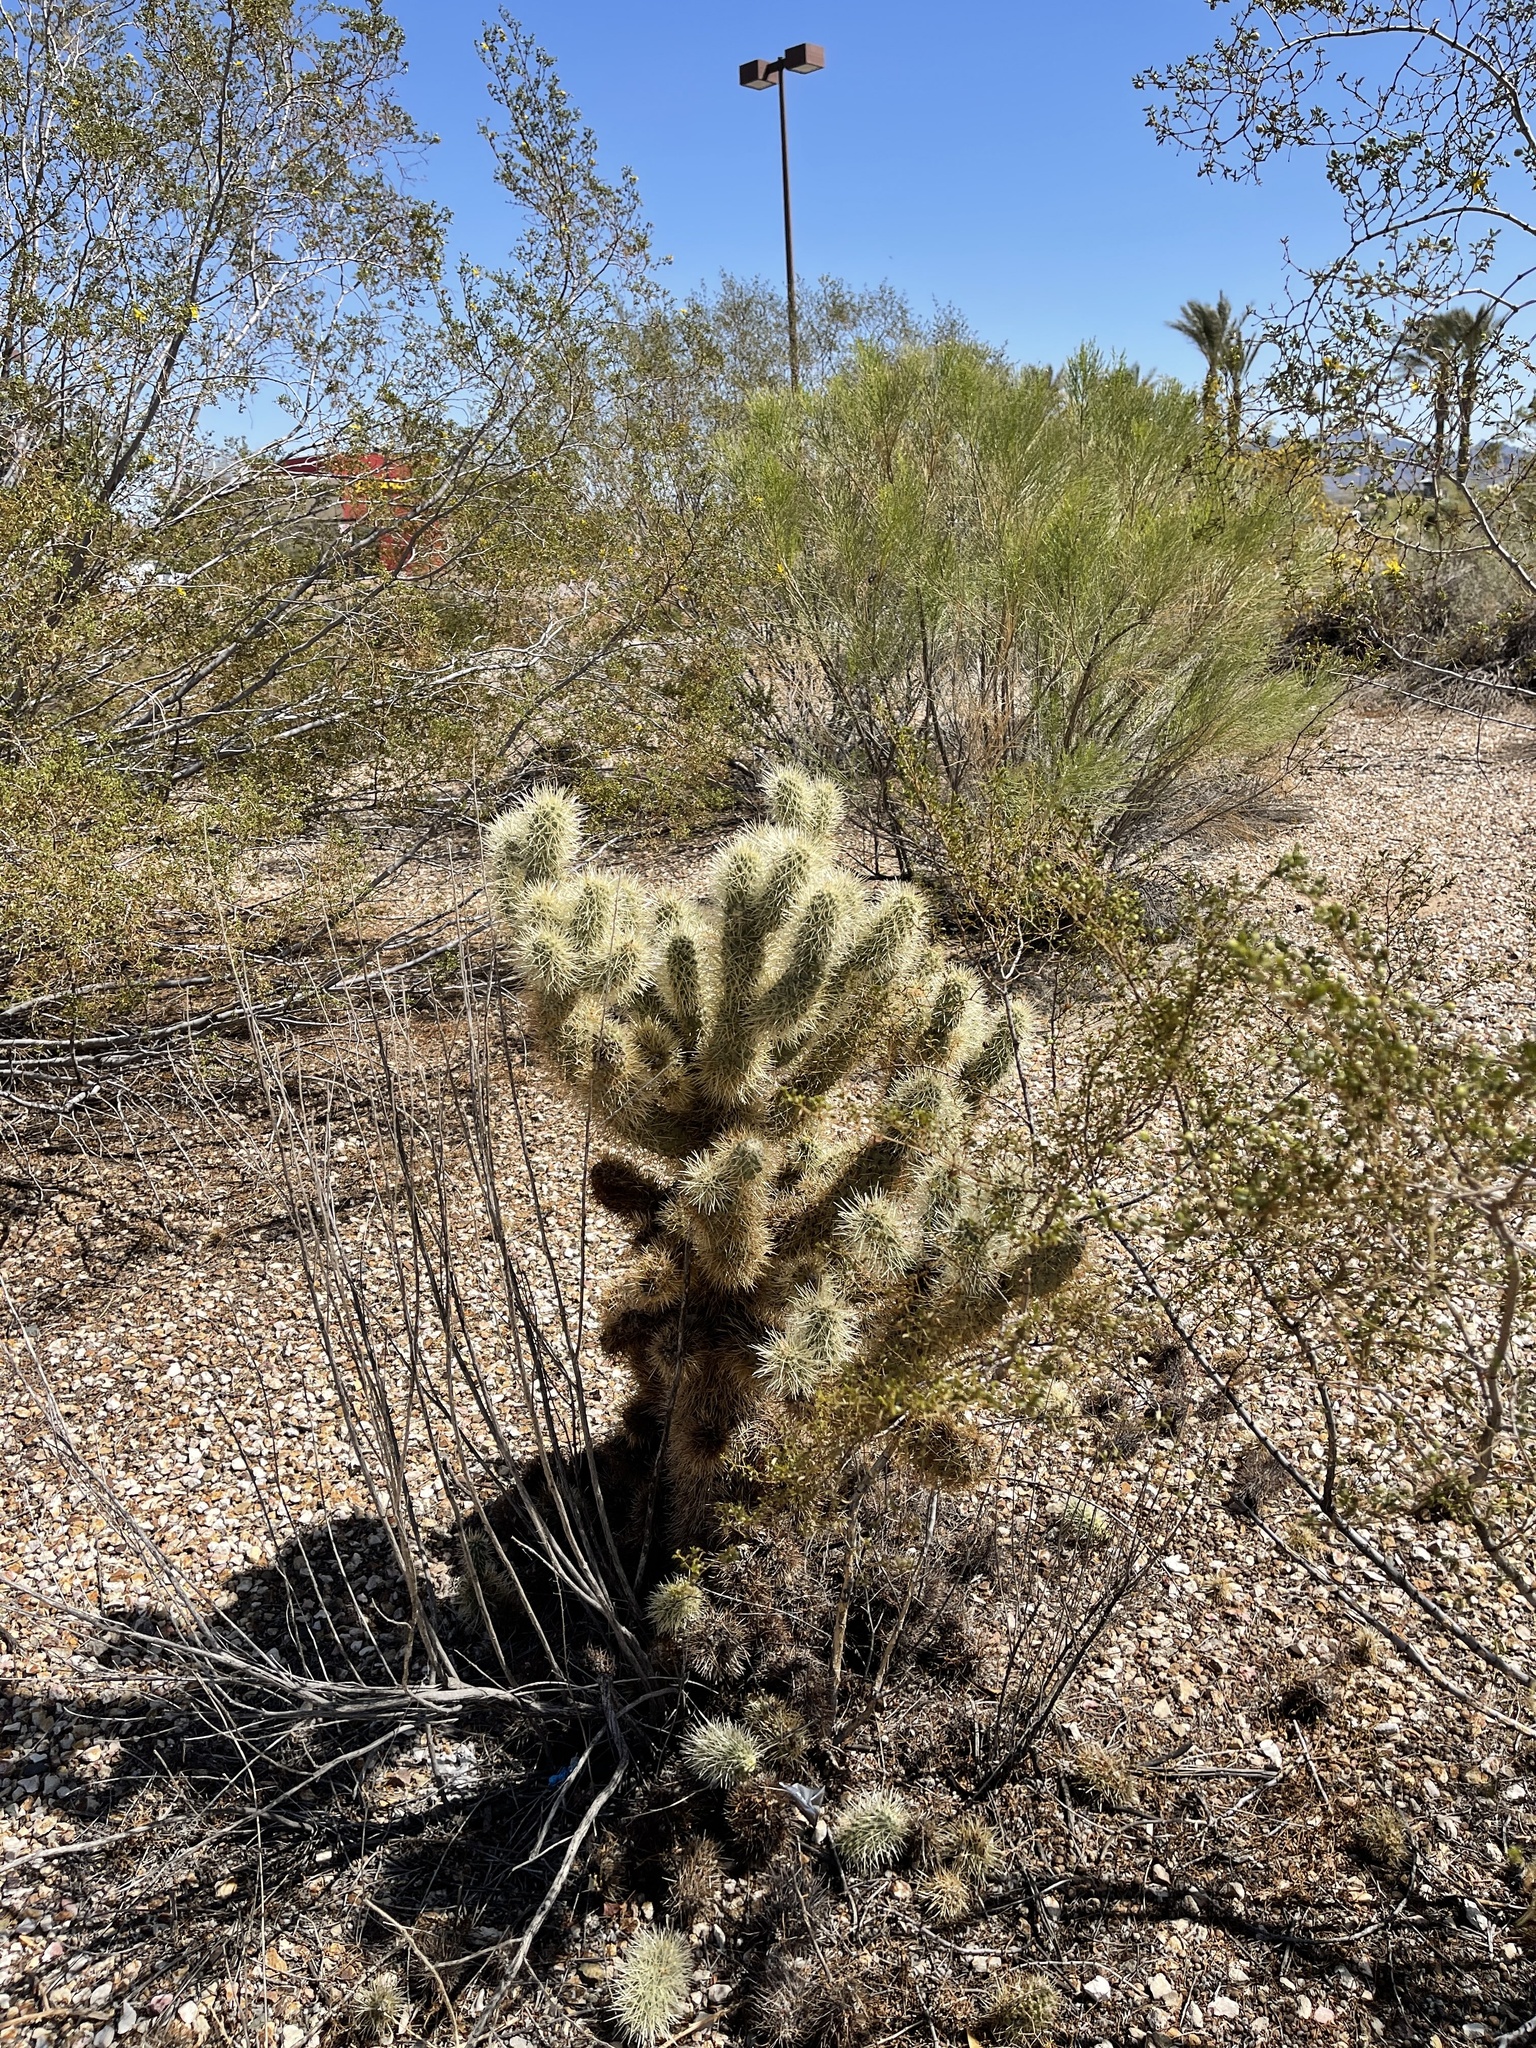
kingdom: Plantae
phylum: Tracheophyta
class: Magnoliopsida
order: Caryophyllales
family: Cactaceae
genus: Cylindropuntia
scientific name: Cylindropuntia fosbergii
